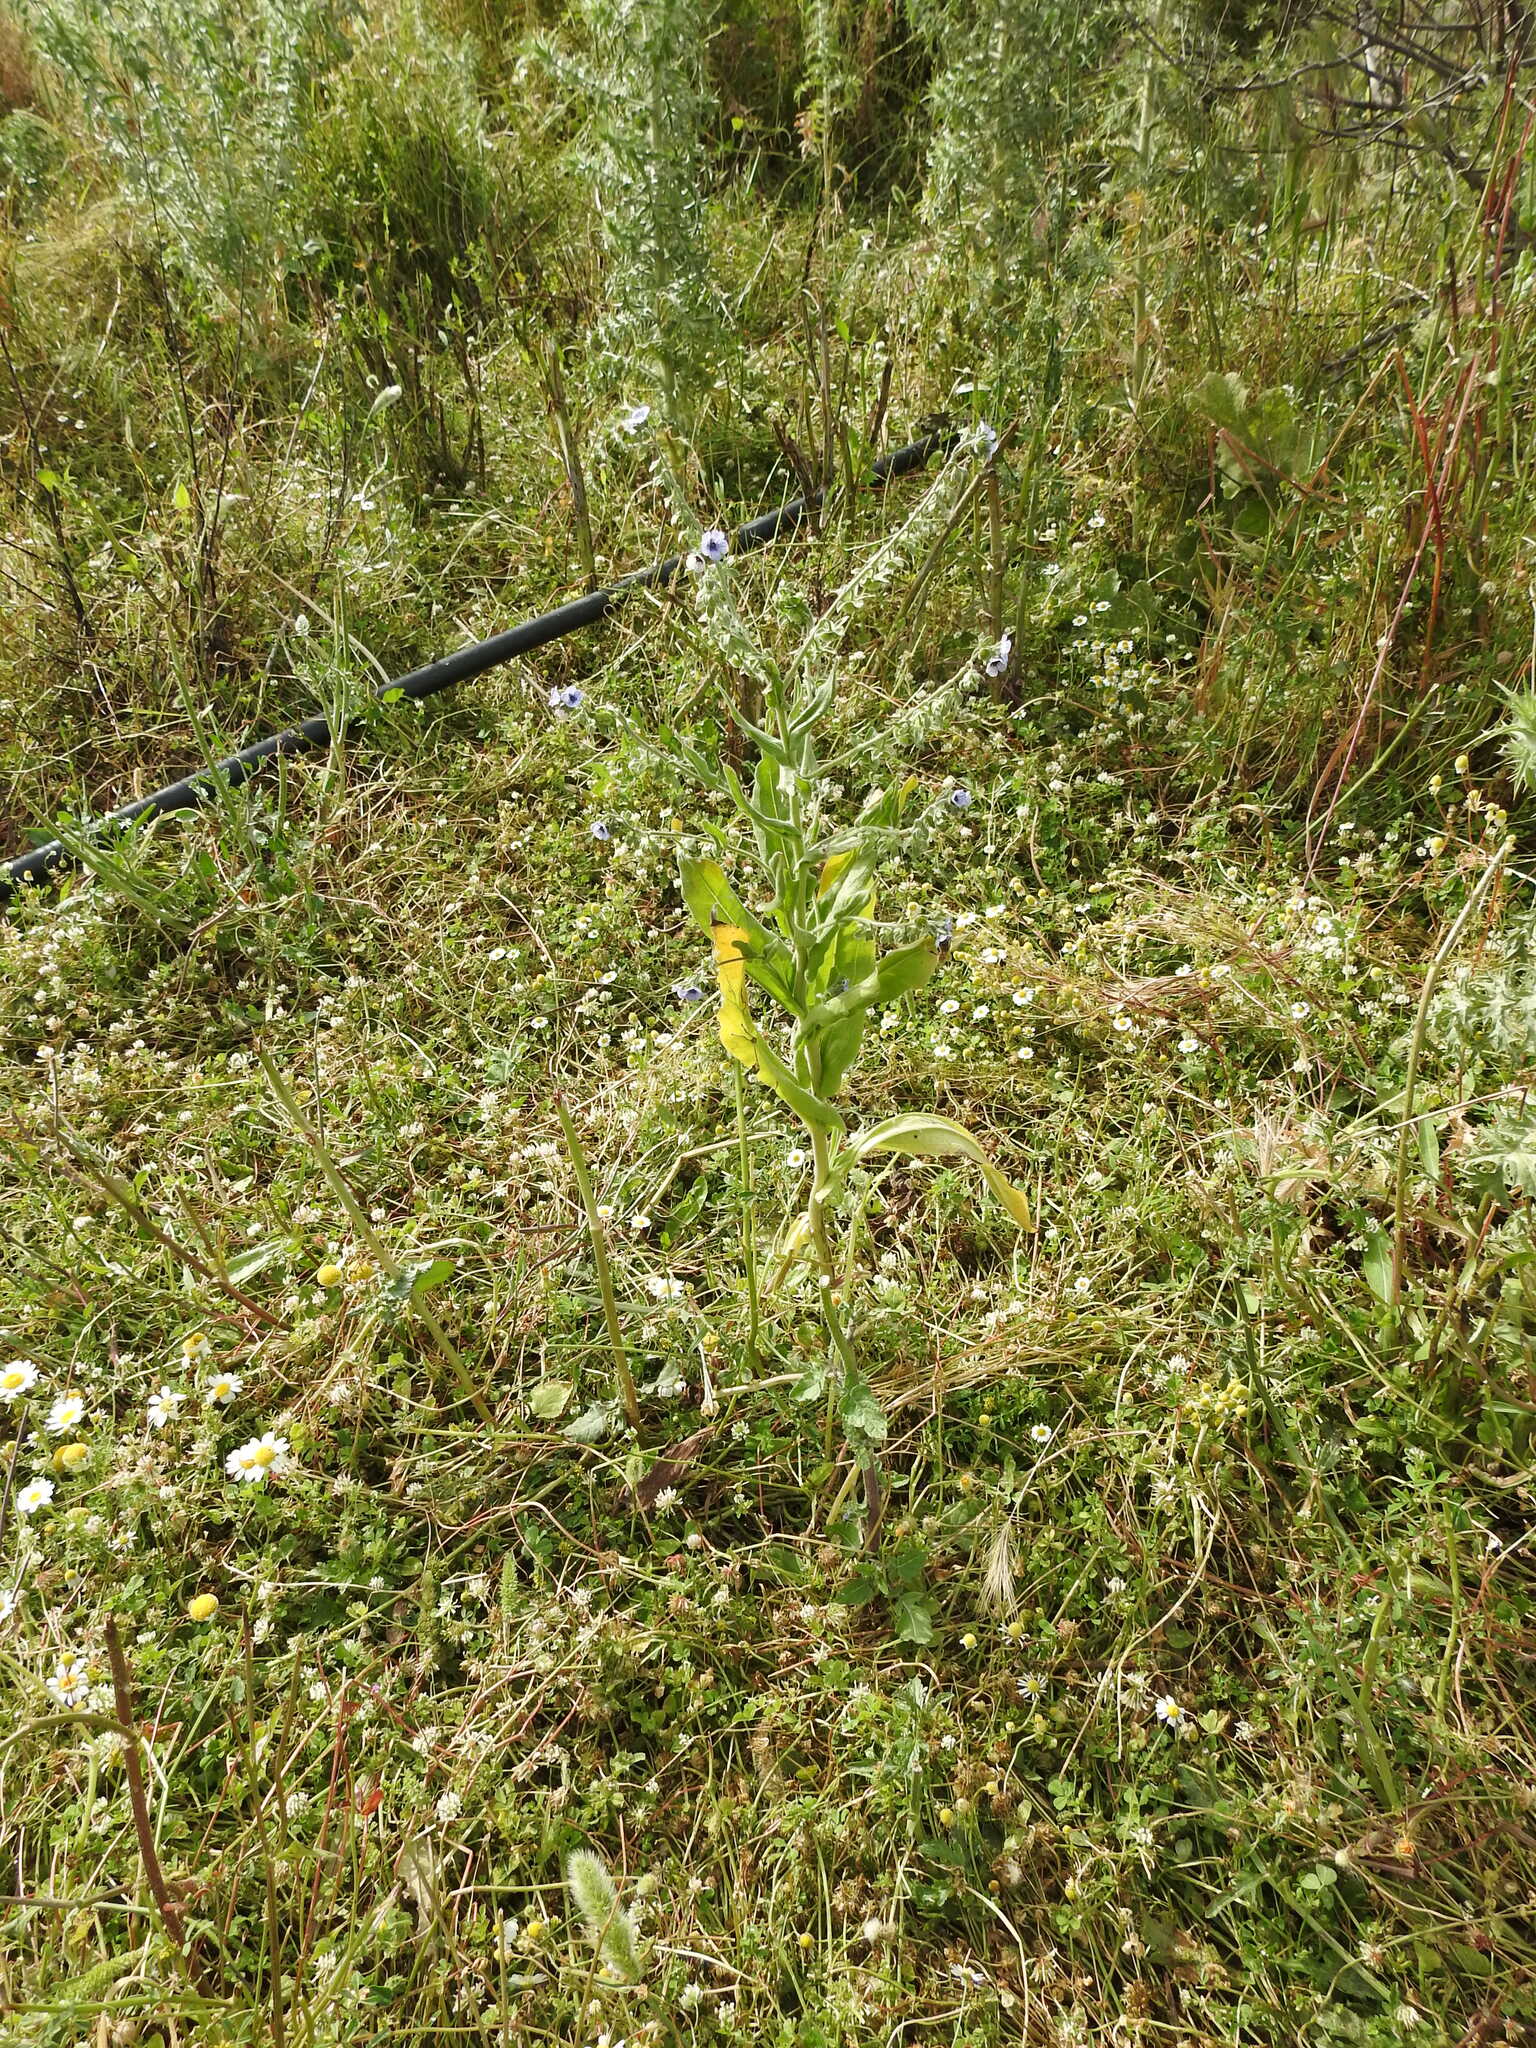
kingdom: Plantae
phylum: Tracheophyta
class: Magnoliopsida
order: Boraginales
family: Boraginaceae
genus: Cynoglossum
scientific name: Cynoglossum creticum
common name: Blue hound's tongue
